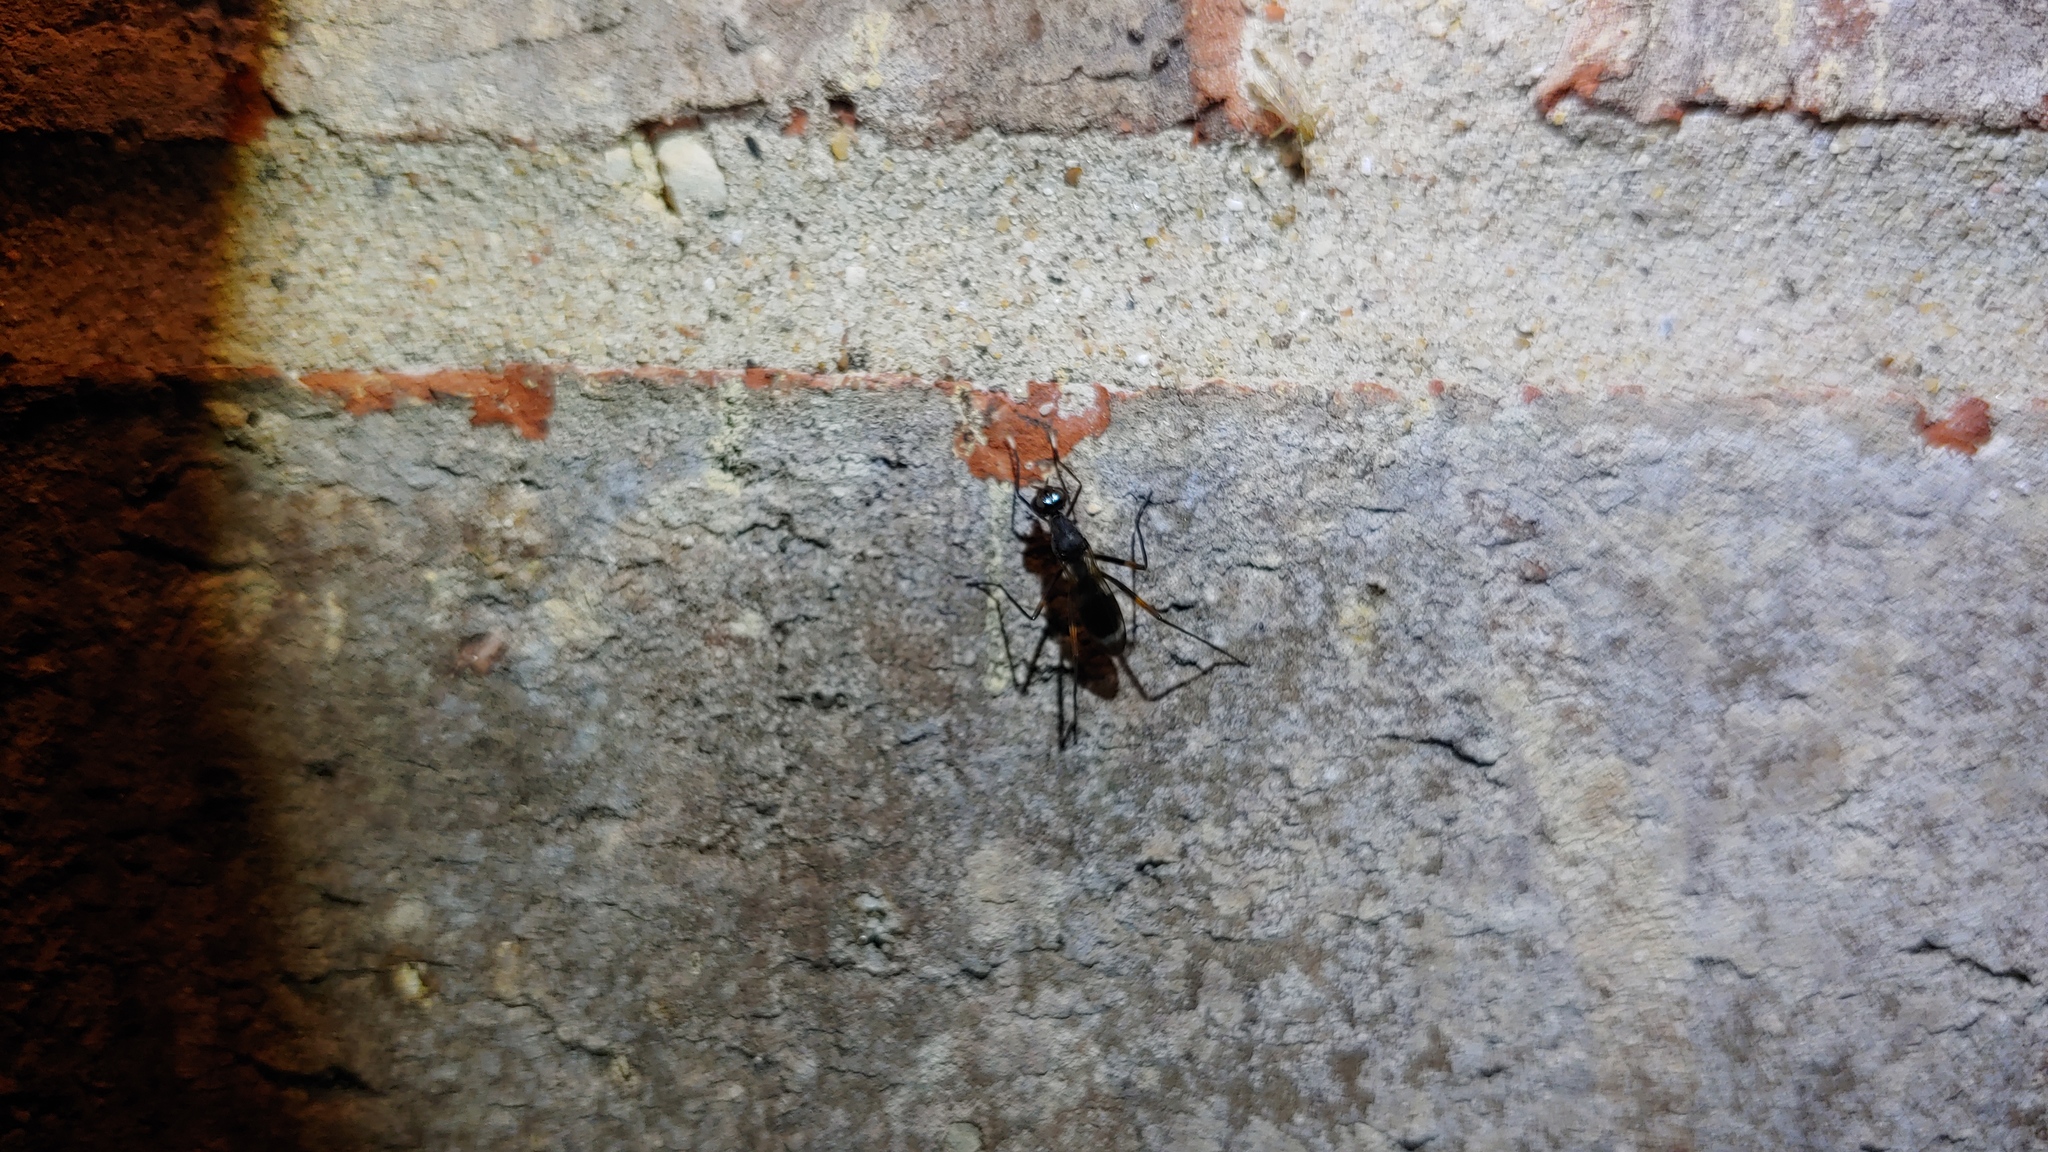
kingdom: Animalia
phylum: Arthropoda
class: Insecta
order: Diptera
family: Micropezidae
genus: Taeniaptera
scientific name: Taeniaptera trivittata
